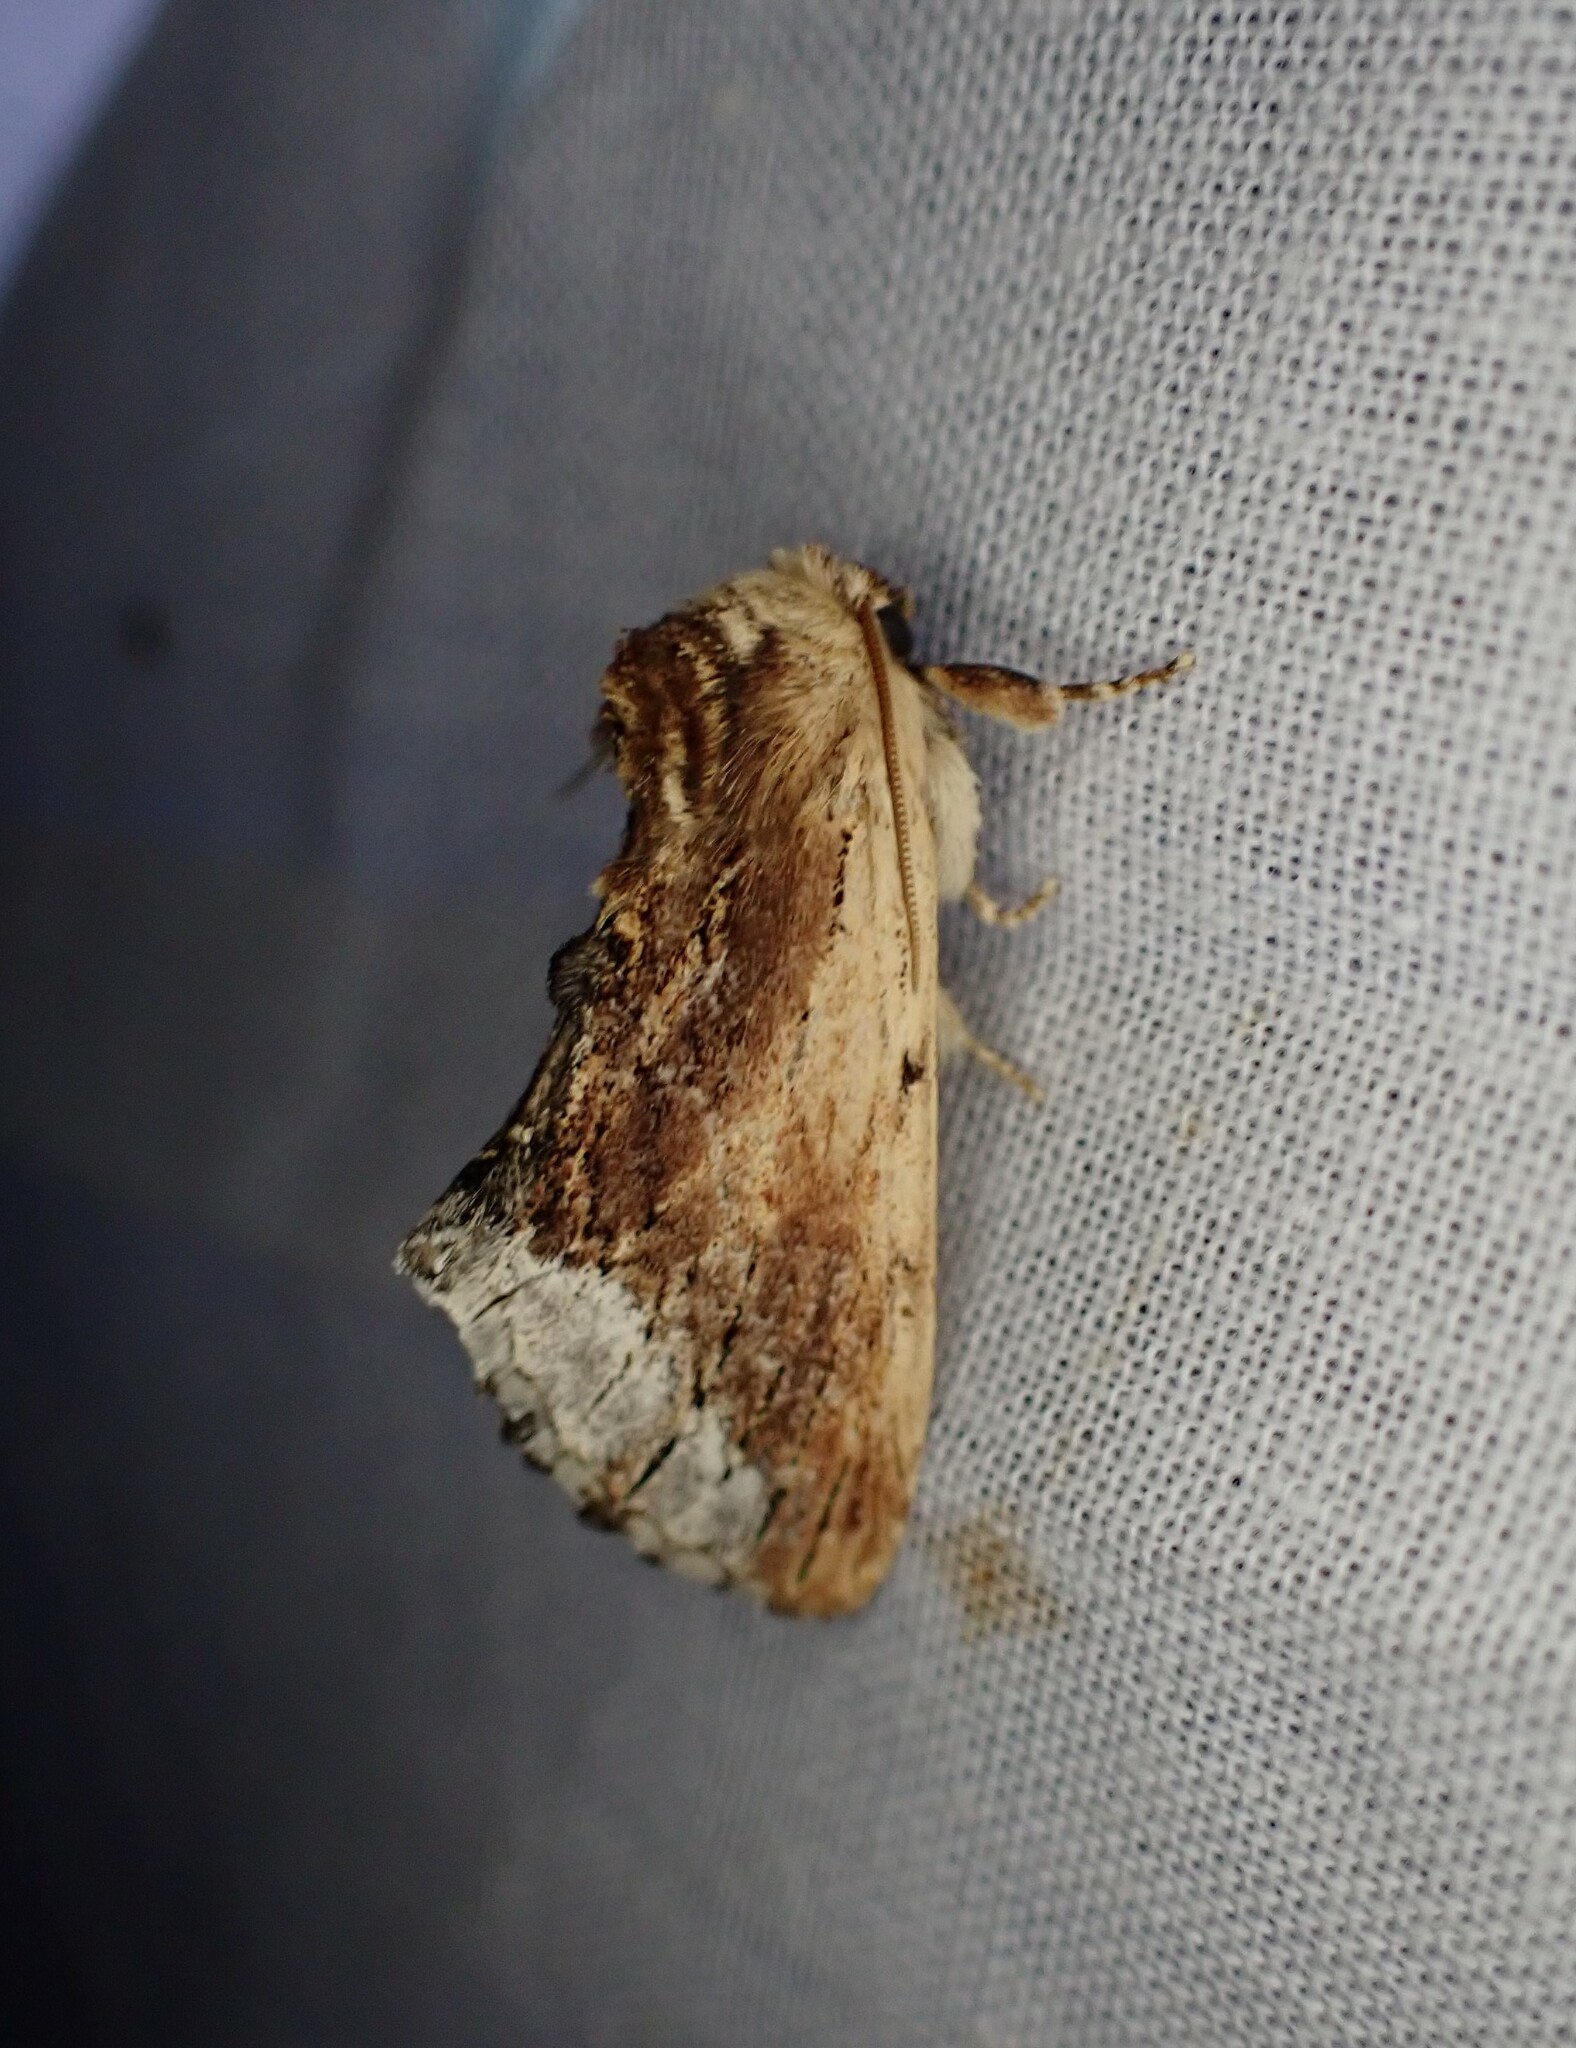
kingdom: Animalia
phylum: Arthropoda
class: Insecta
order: Lepidoptera
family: Notodontidae
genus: Ptilodon
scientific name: Ptilodon cucullina
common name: Maple prominent
